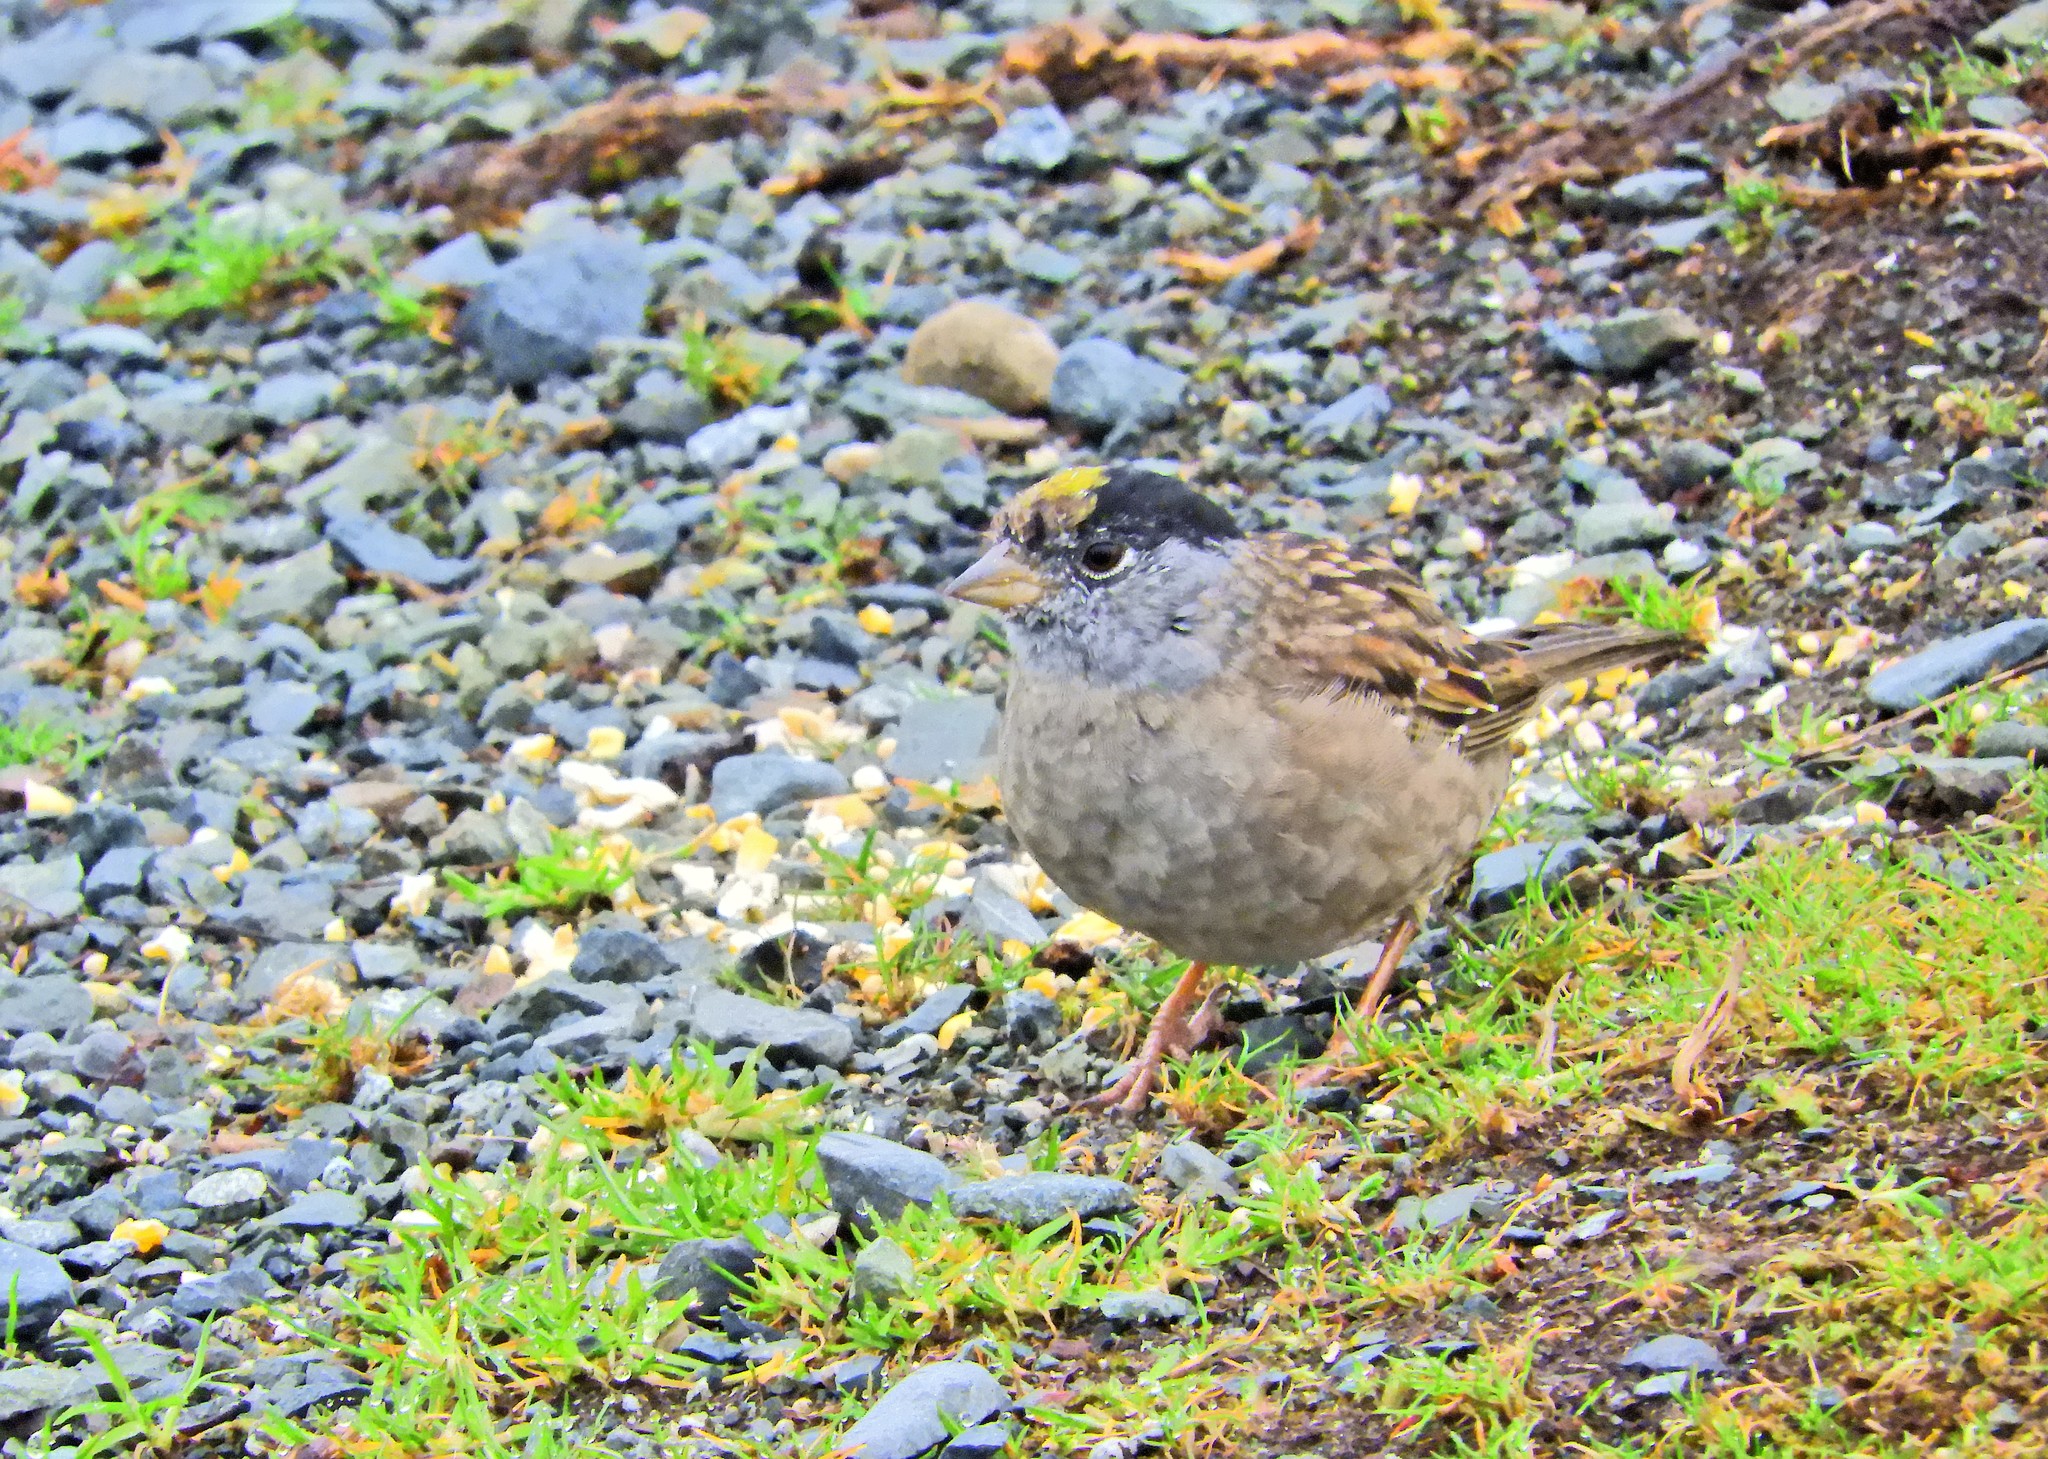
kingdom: Animalia
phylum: Chordata
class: Aves
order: Passeriformes
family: Passerellidae
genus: Zonotrichia
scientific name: Zonotrichia atricapilla
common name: Golden-crowned sparrow
